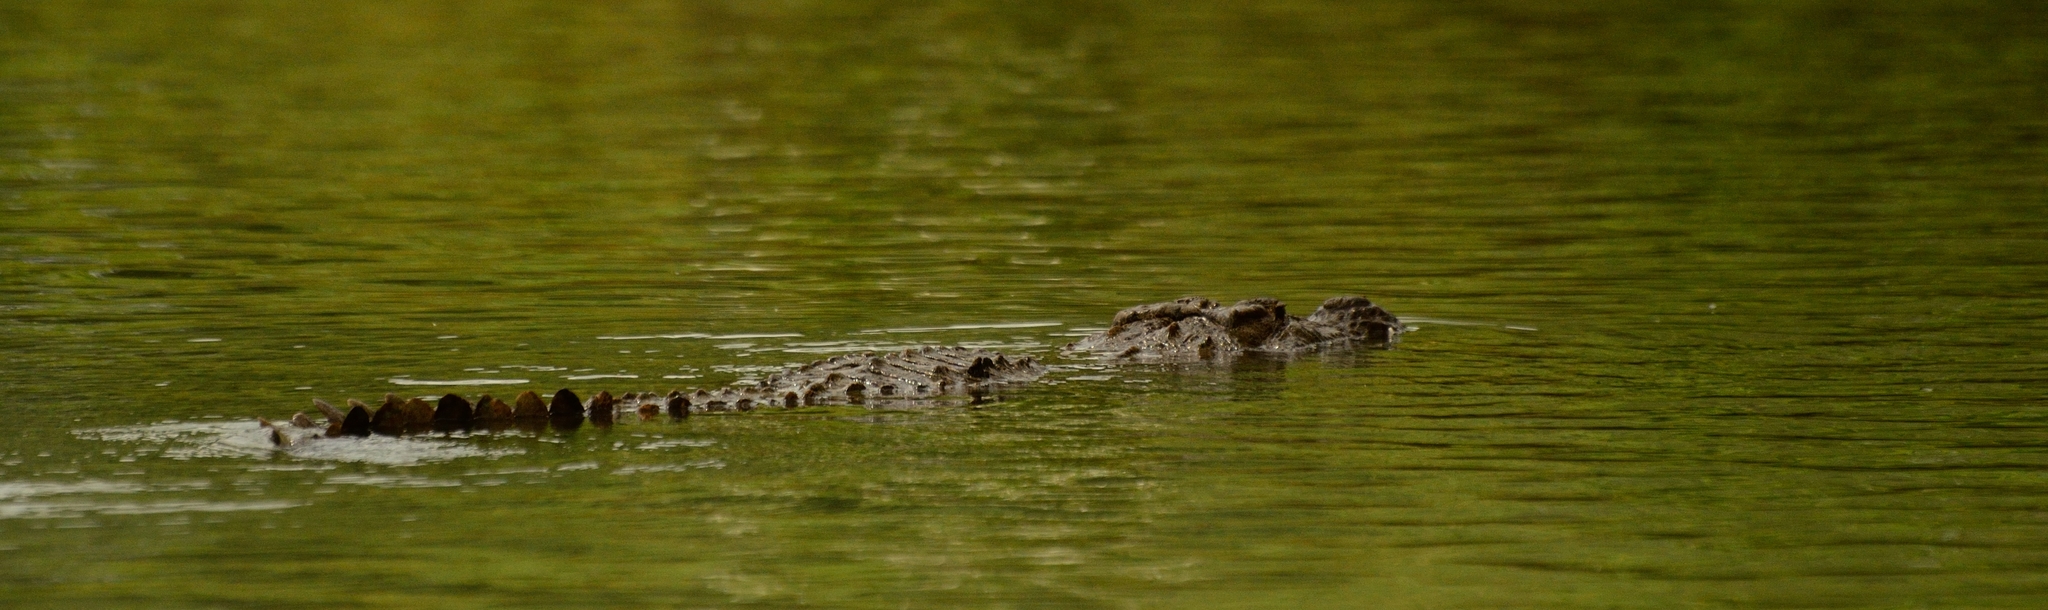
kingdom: Animalia
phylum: Chordata
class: Crocodylia
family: Crocodylidae
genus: Crocodylus
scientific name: Crocodylus palustris
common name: Mugger crocodile
